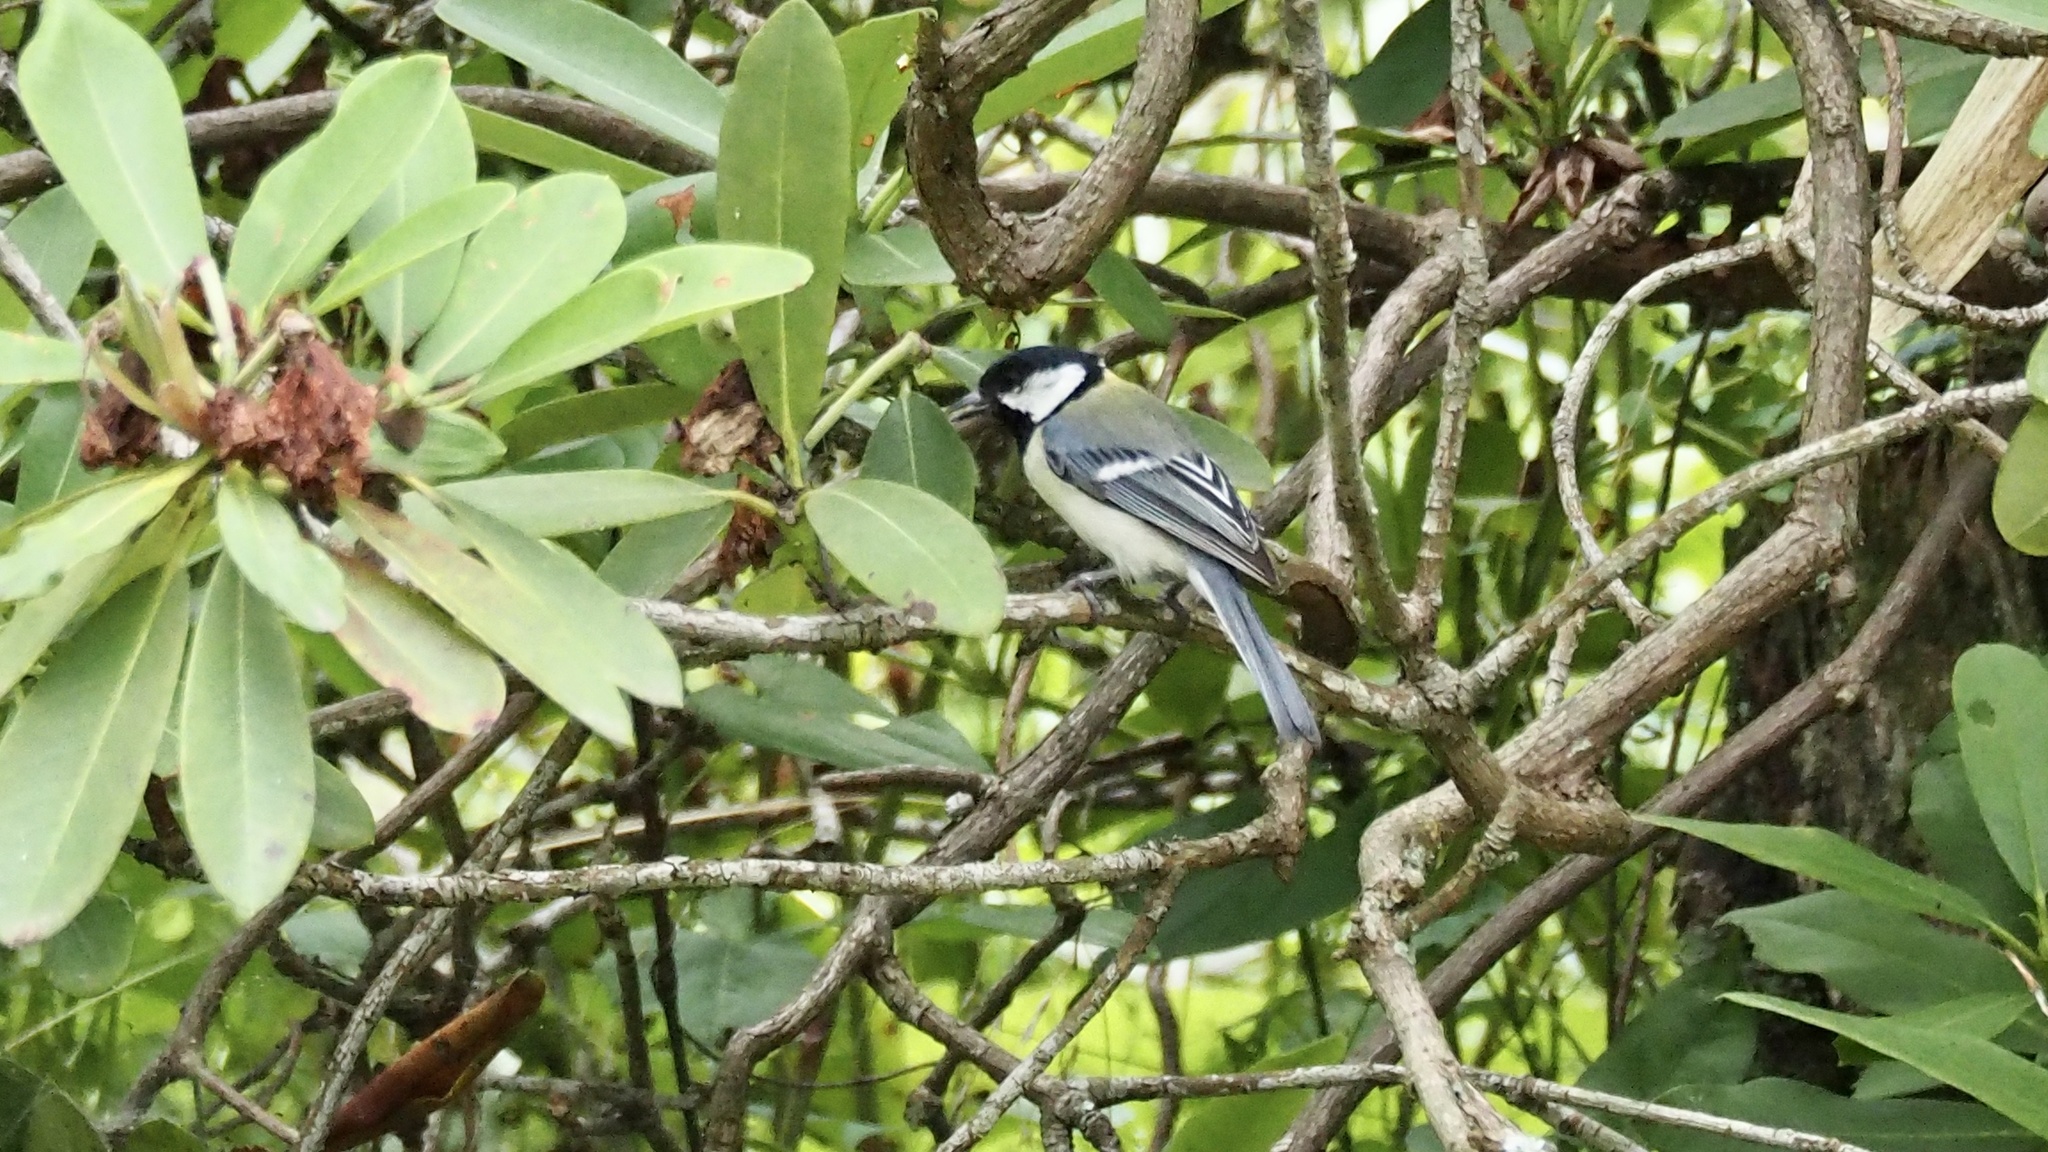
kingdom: Animalia
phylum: Chordata
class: Aves
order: Passeriformes
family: Paridae
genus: Parus
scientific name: Parus minor
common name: Japanese tit
